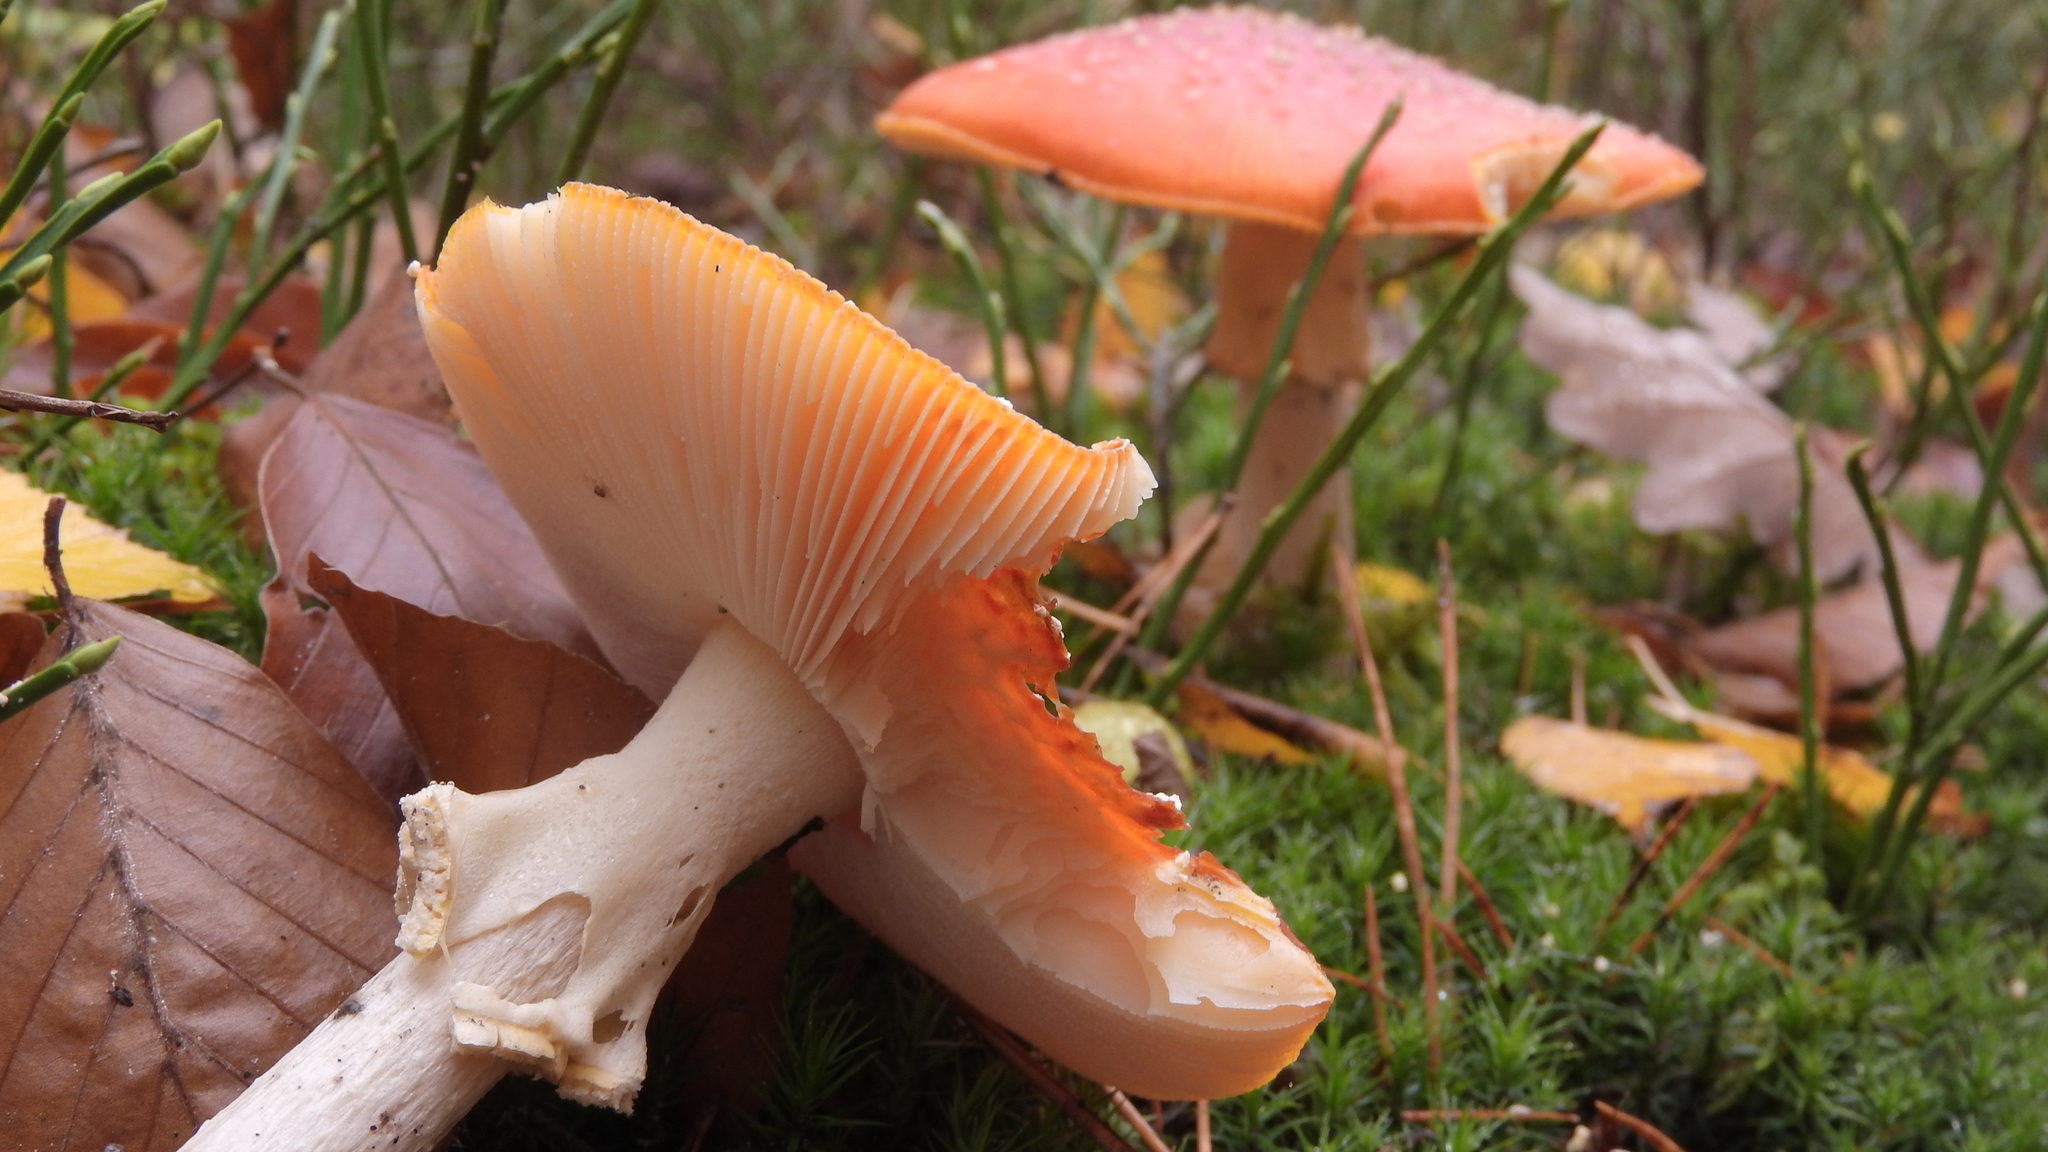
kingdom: Fungi
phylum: Basidiomycota
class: Agaricomycetes
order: Agaricales
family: Amanitaceae
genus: Amanita
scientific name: Amanita muscaria
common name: Fly agaric
